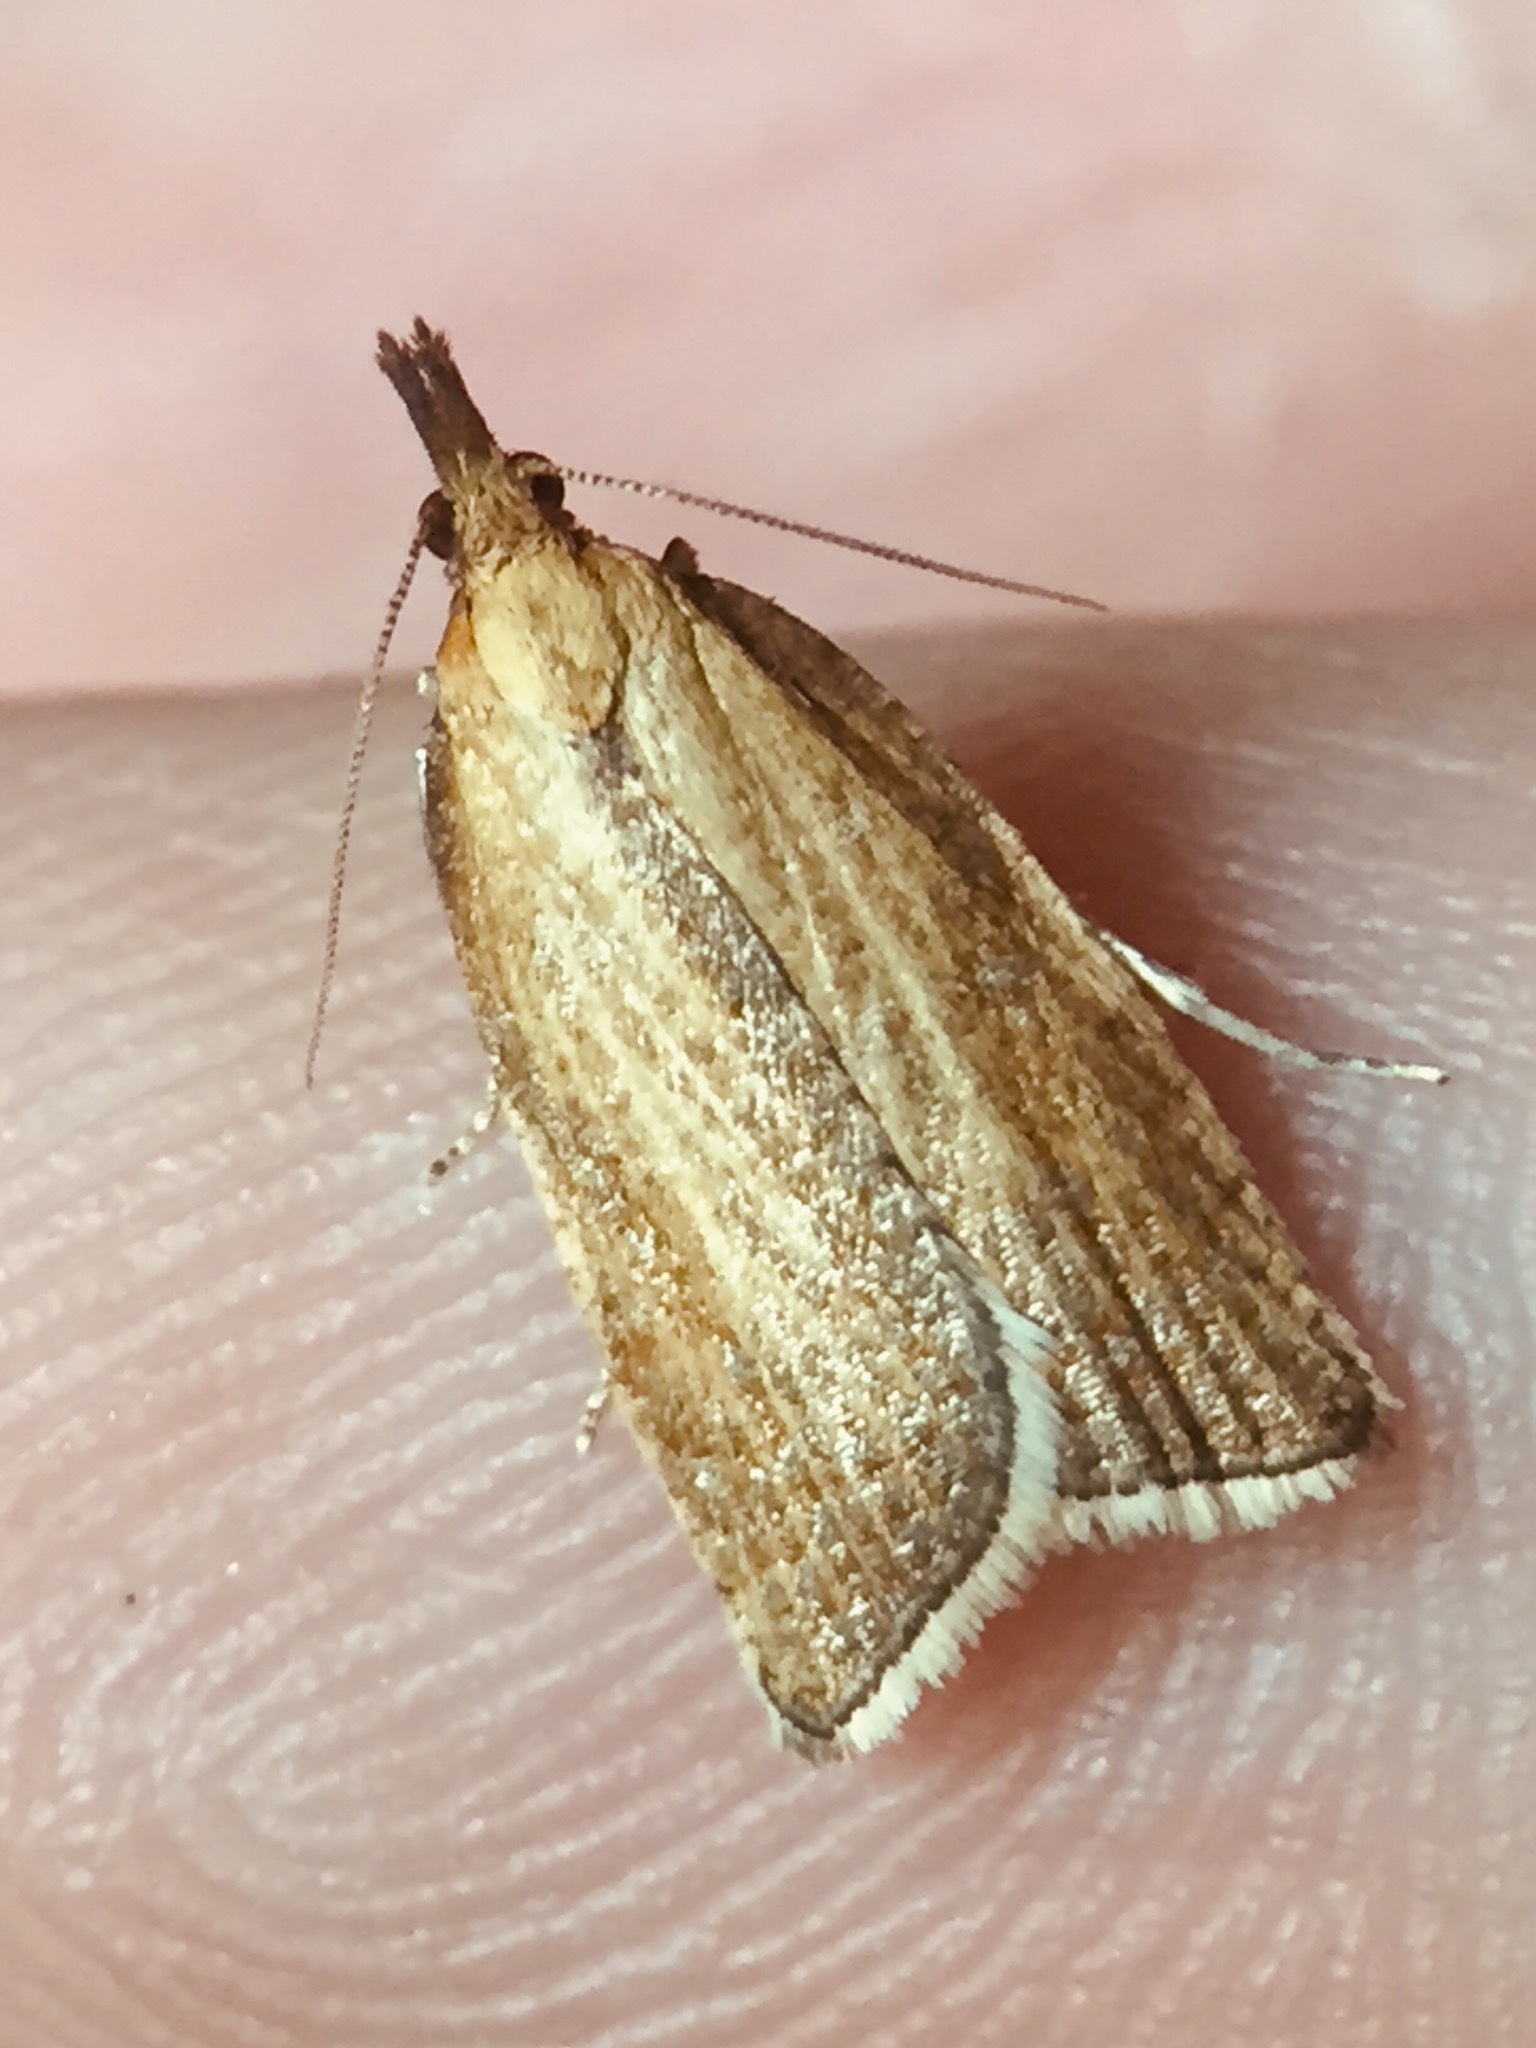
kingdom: Animalia
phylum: Arthropoda
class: Insecta
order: Lepidoptera
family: Tortricidae
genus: Catamacta
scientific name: Catamacta lotinana
